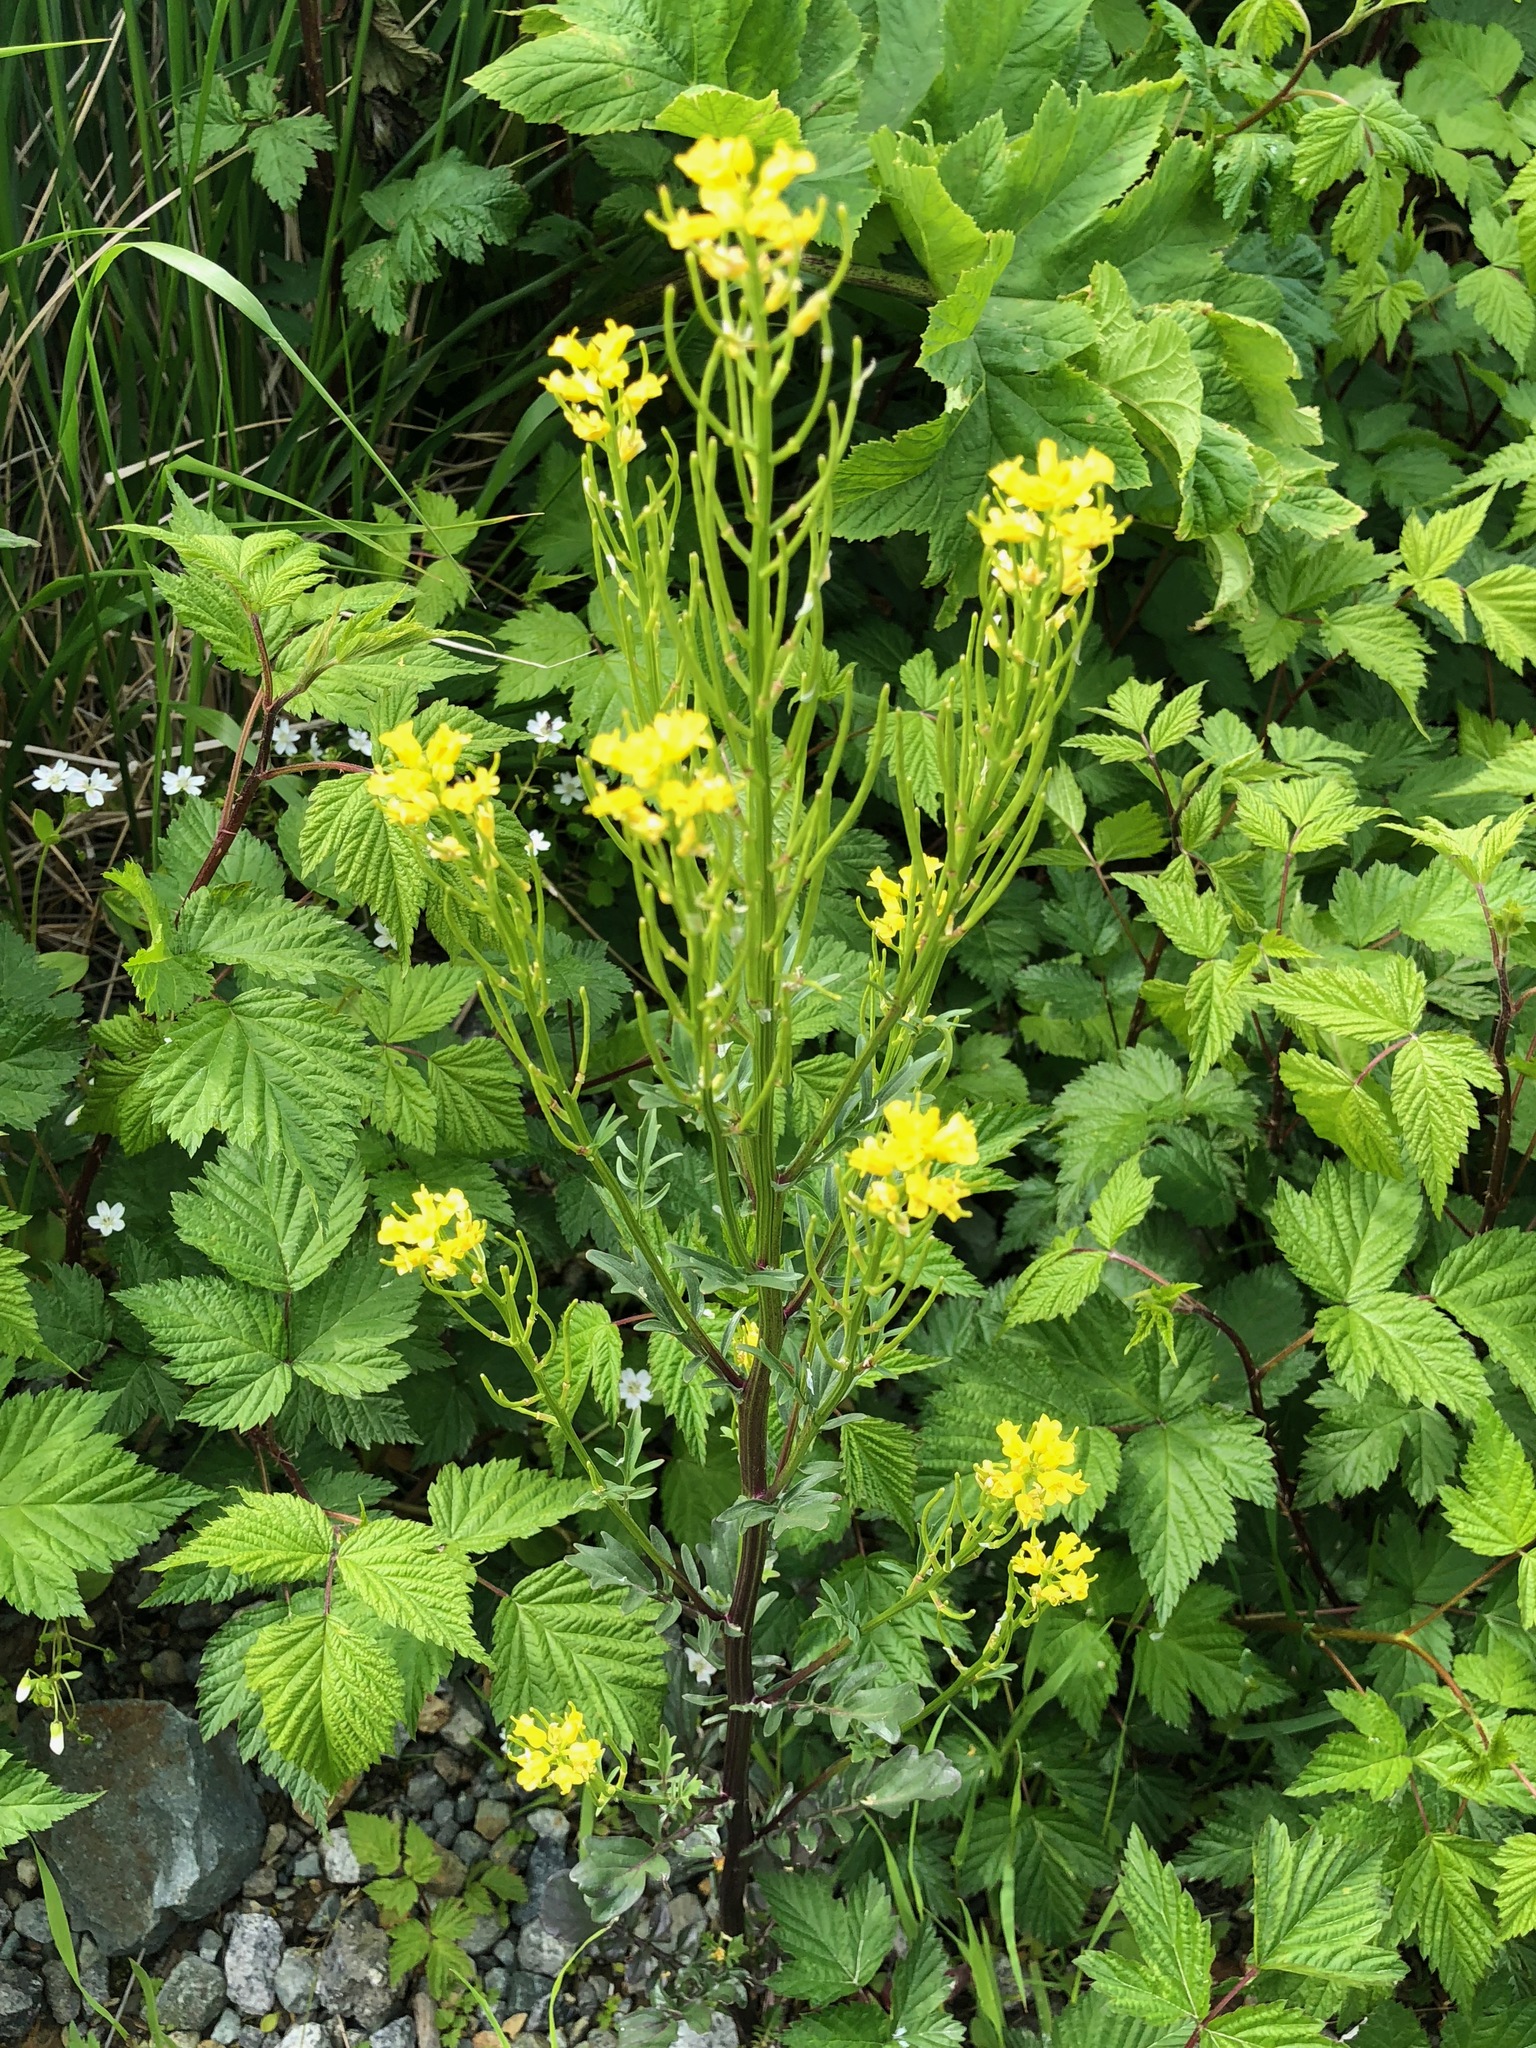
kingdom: Plantae
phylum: Tracheophyta
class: Magnoliopsida
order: Brassicales
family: Brassicaceae
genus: Barbarea
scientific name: Barbarea orthoceras
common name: American wintercress
